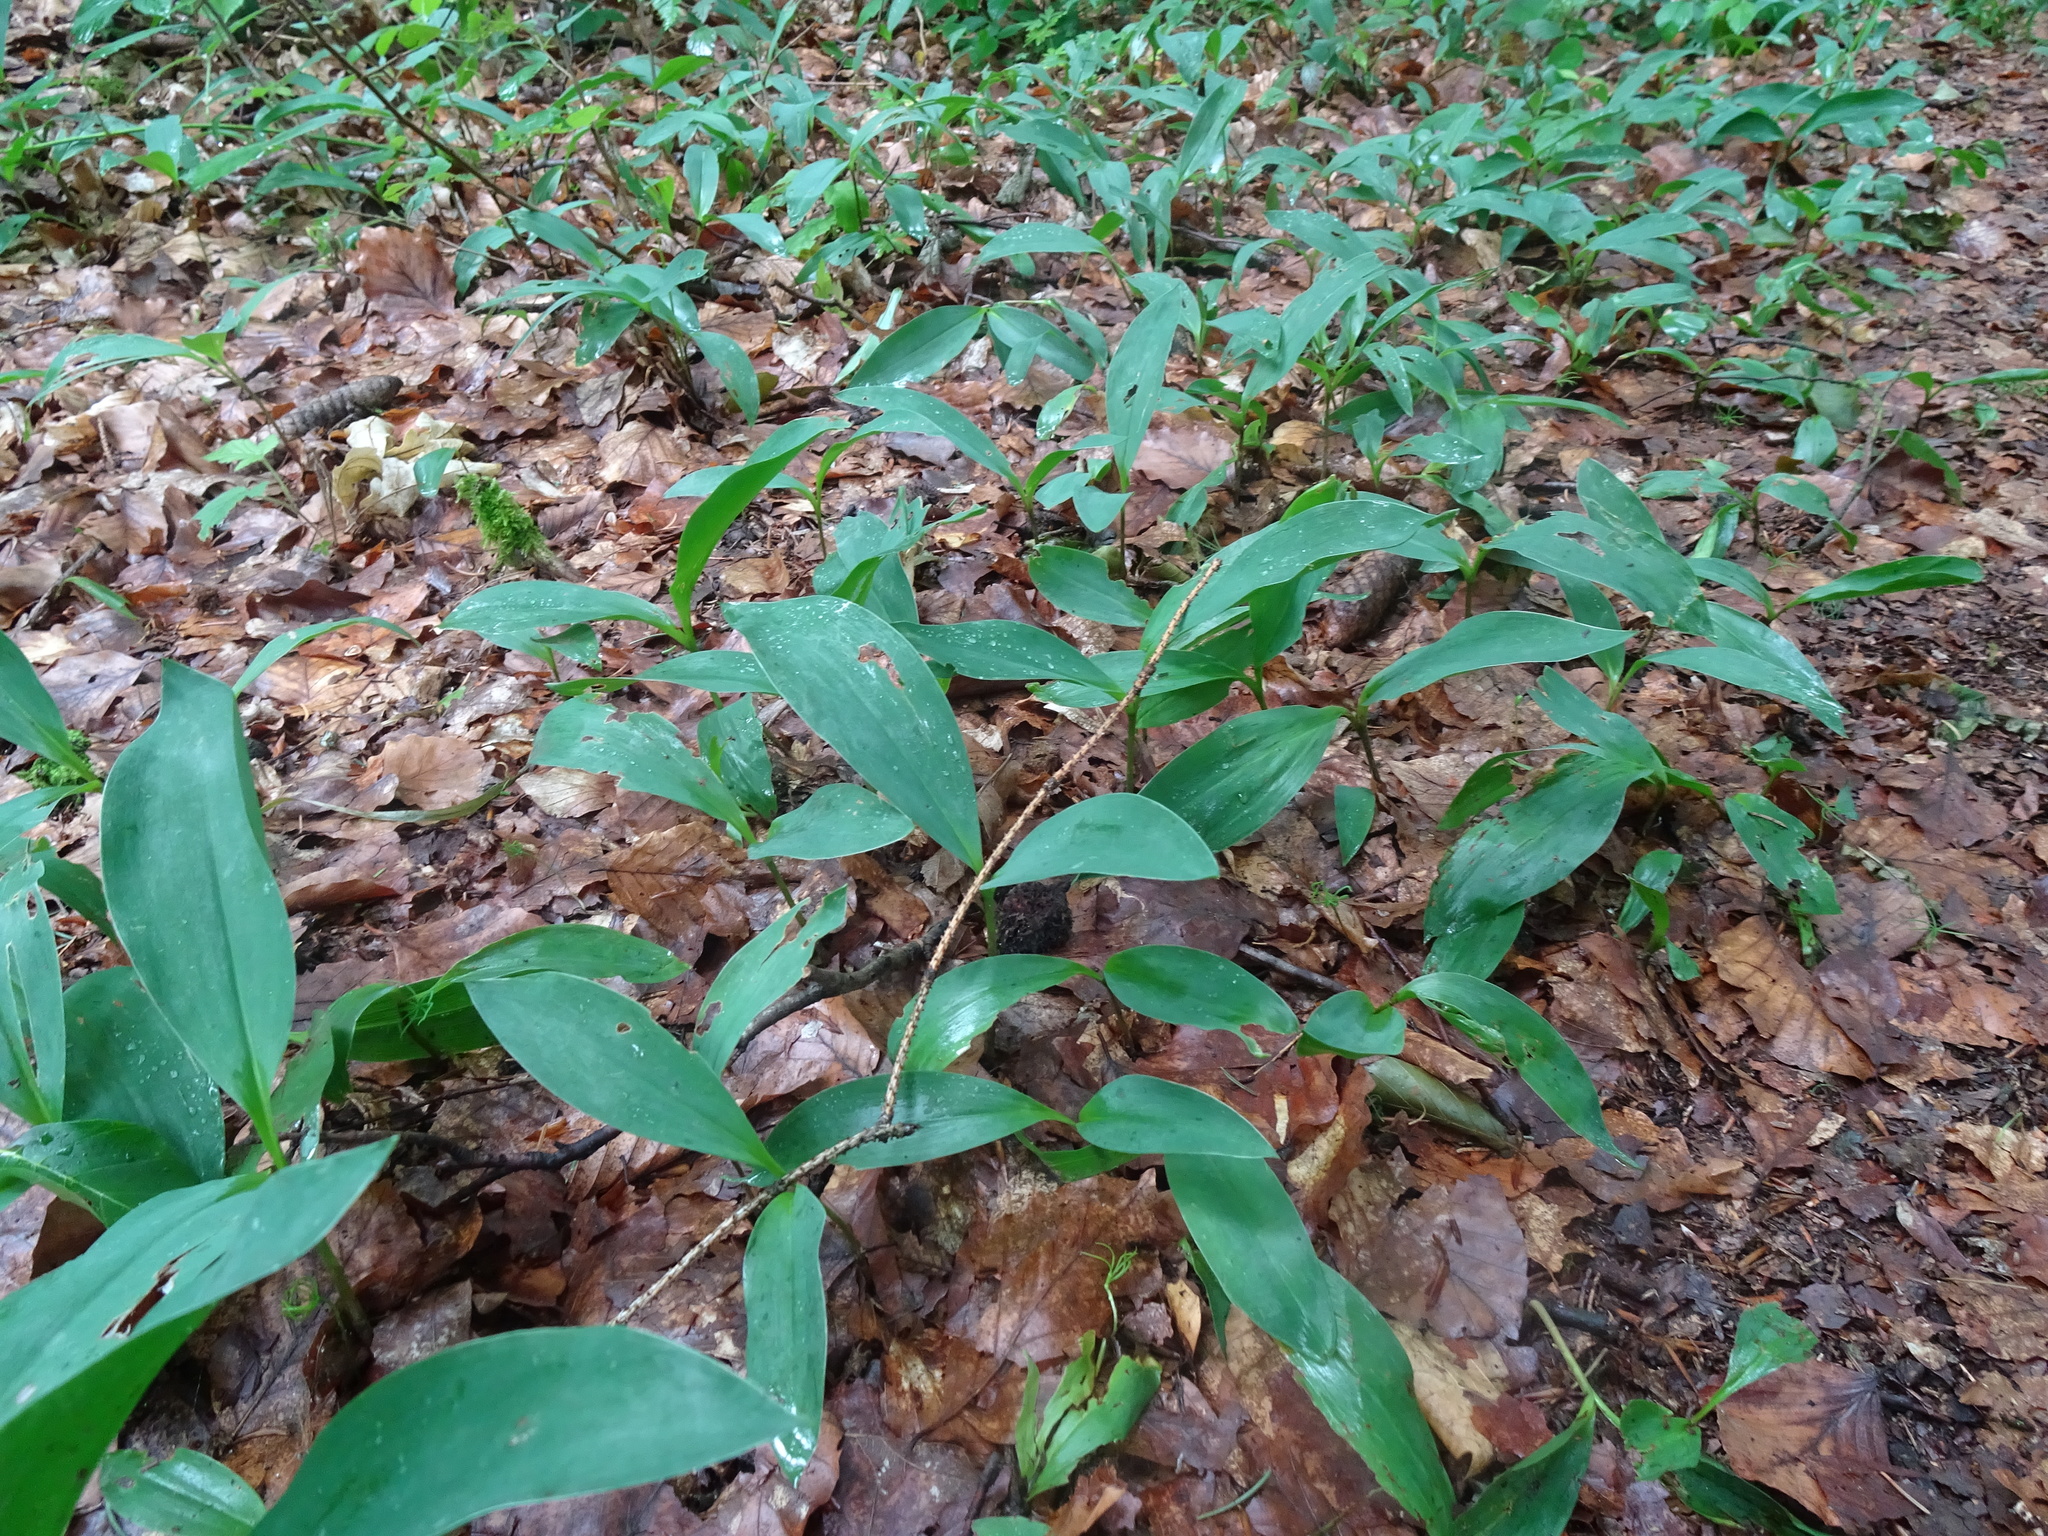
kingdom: Plantae
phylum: Tracheophyta
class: Liliopsida
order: Asparagales
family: Asparagaceae
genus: Convallaria
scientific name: Convallaria majalis
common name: Lily-of-the-valley
